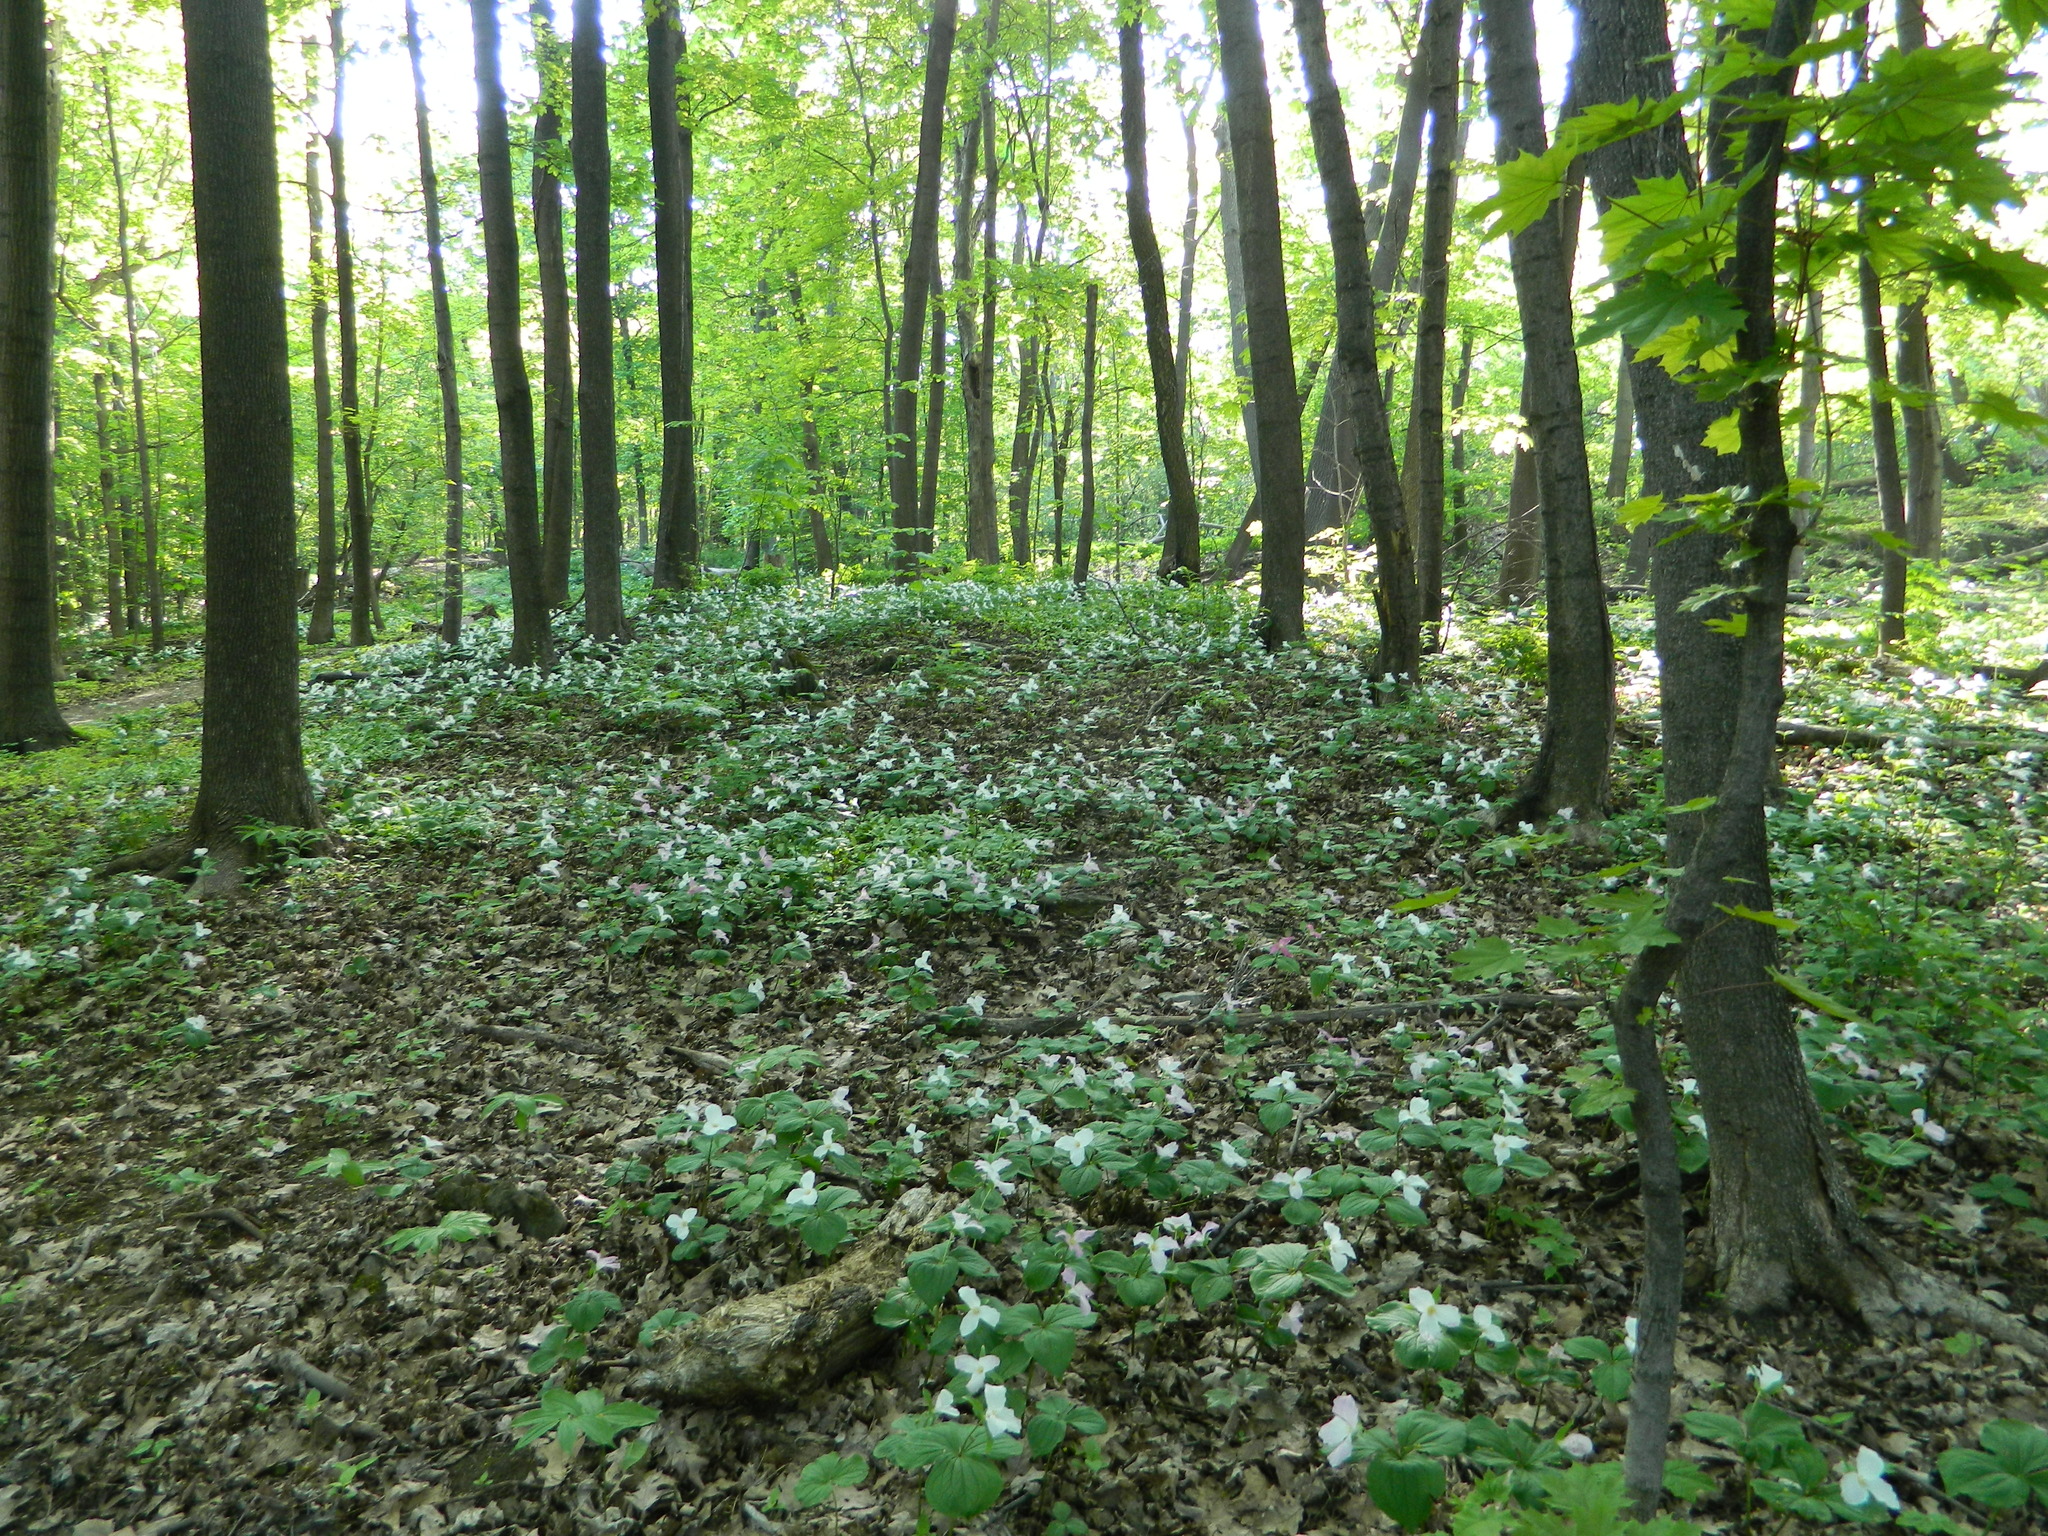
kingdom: Plantae
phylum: Tracheophyta
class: Liliopsida
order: Liliales
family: Melanthiaceae
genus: Trillium
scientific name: Trillium grandiflorum
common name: Great white trillium
